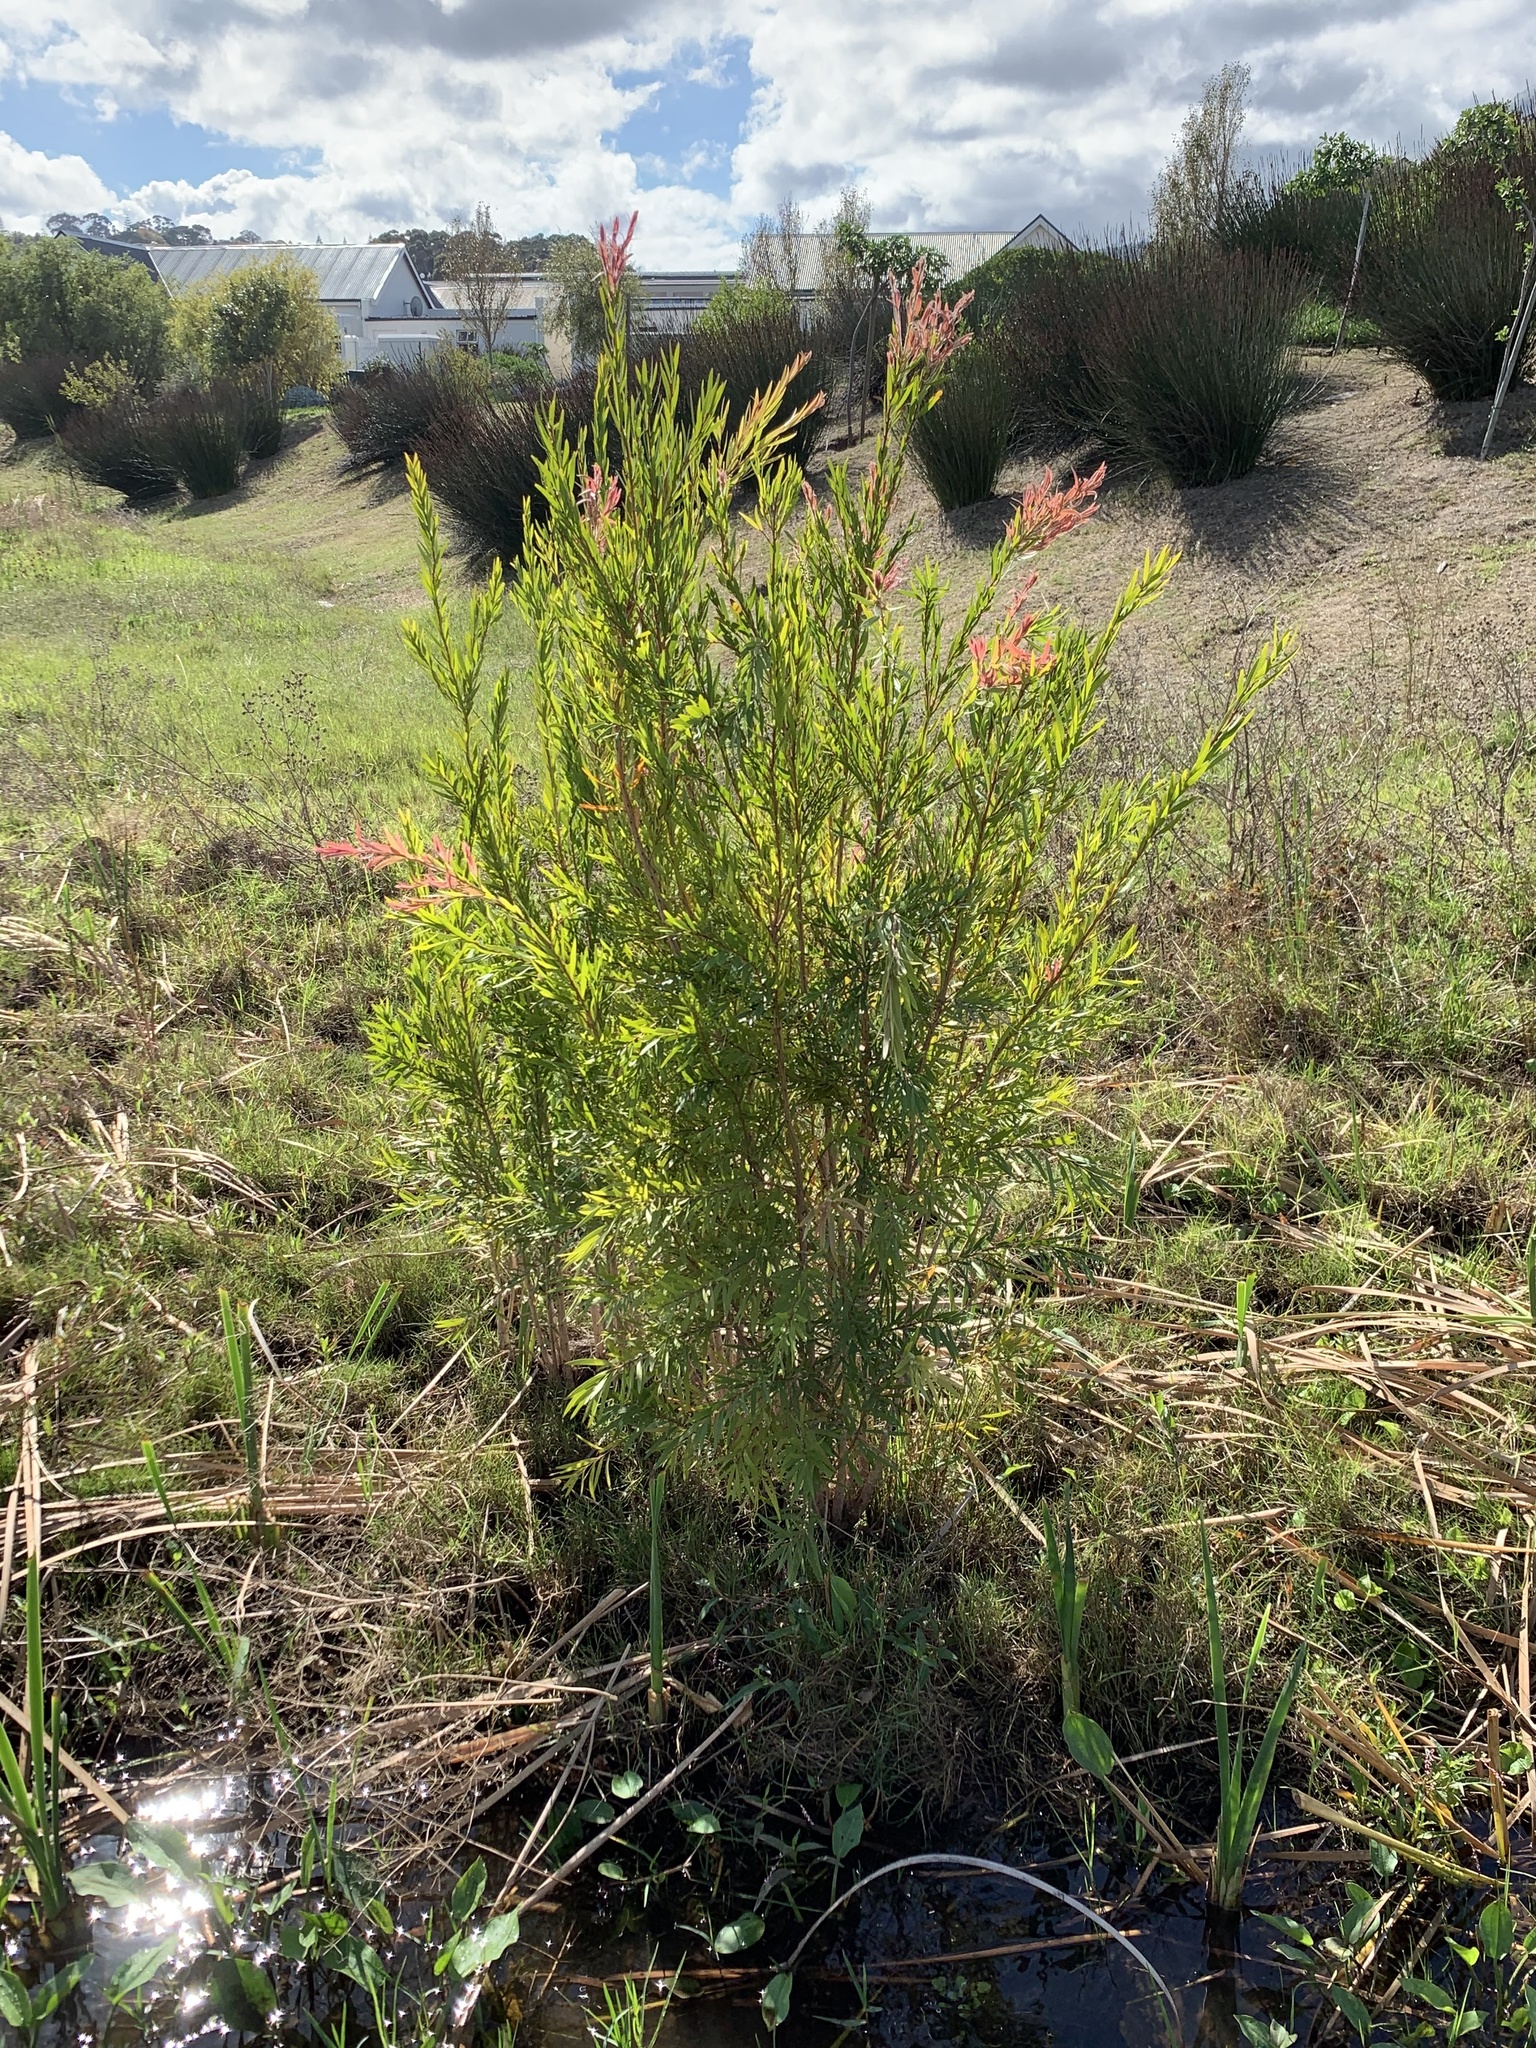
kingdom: Plantae
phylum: Tracheophyta
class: Magnoliopsida
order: Myrtales
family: Myrtaceae
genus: Callistemon
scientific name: Callistemon viminalis
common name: Drooping bottlebrush
